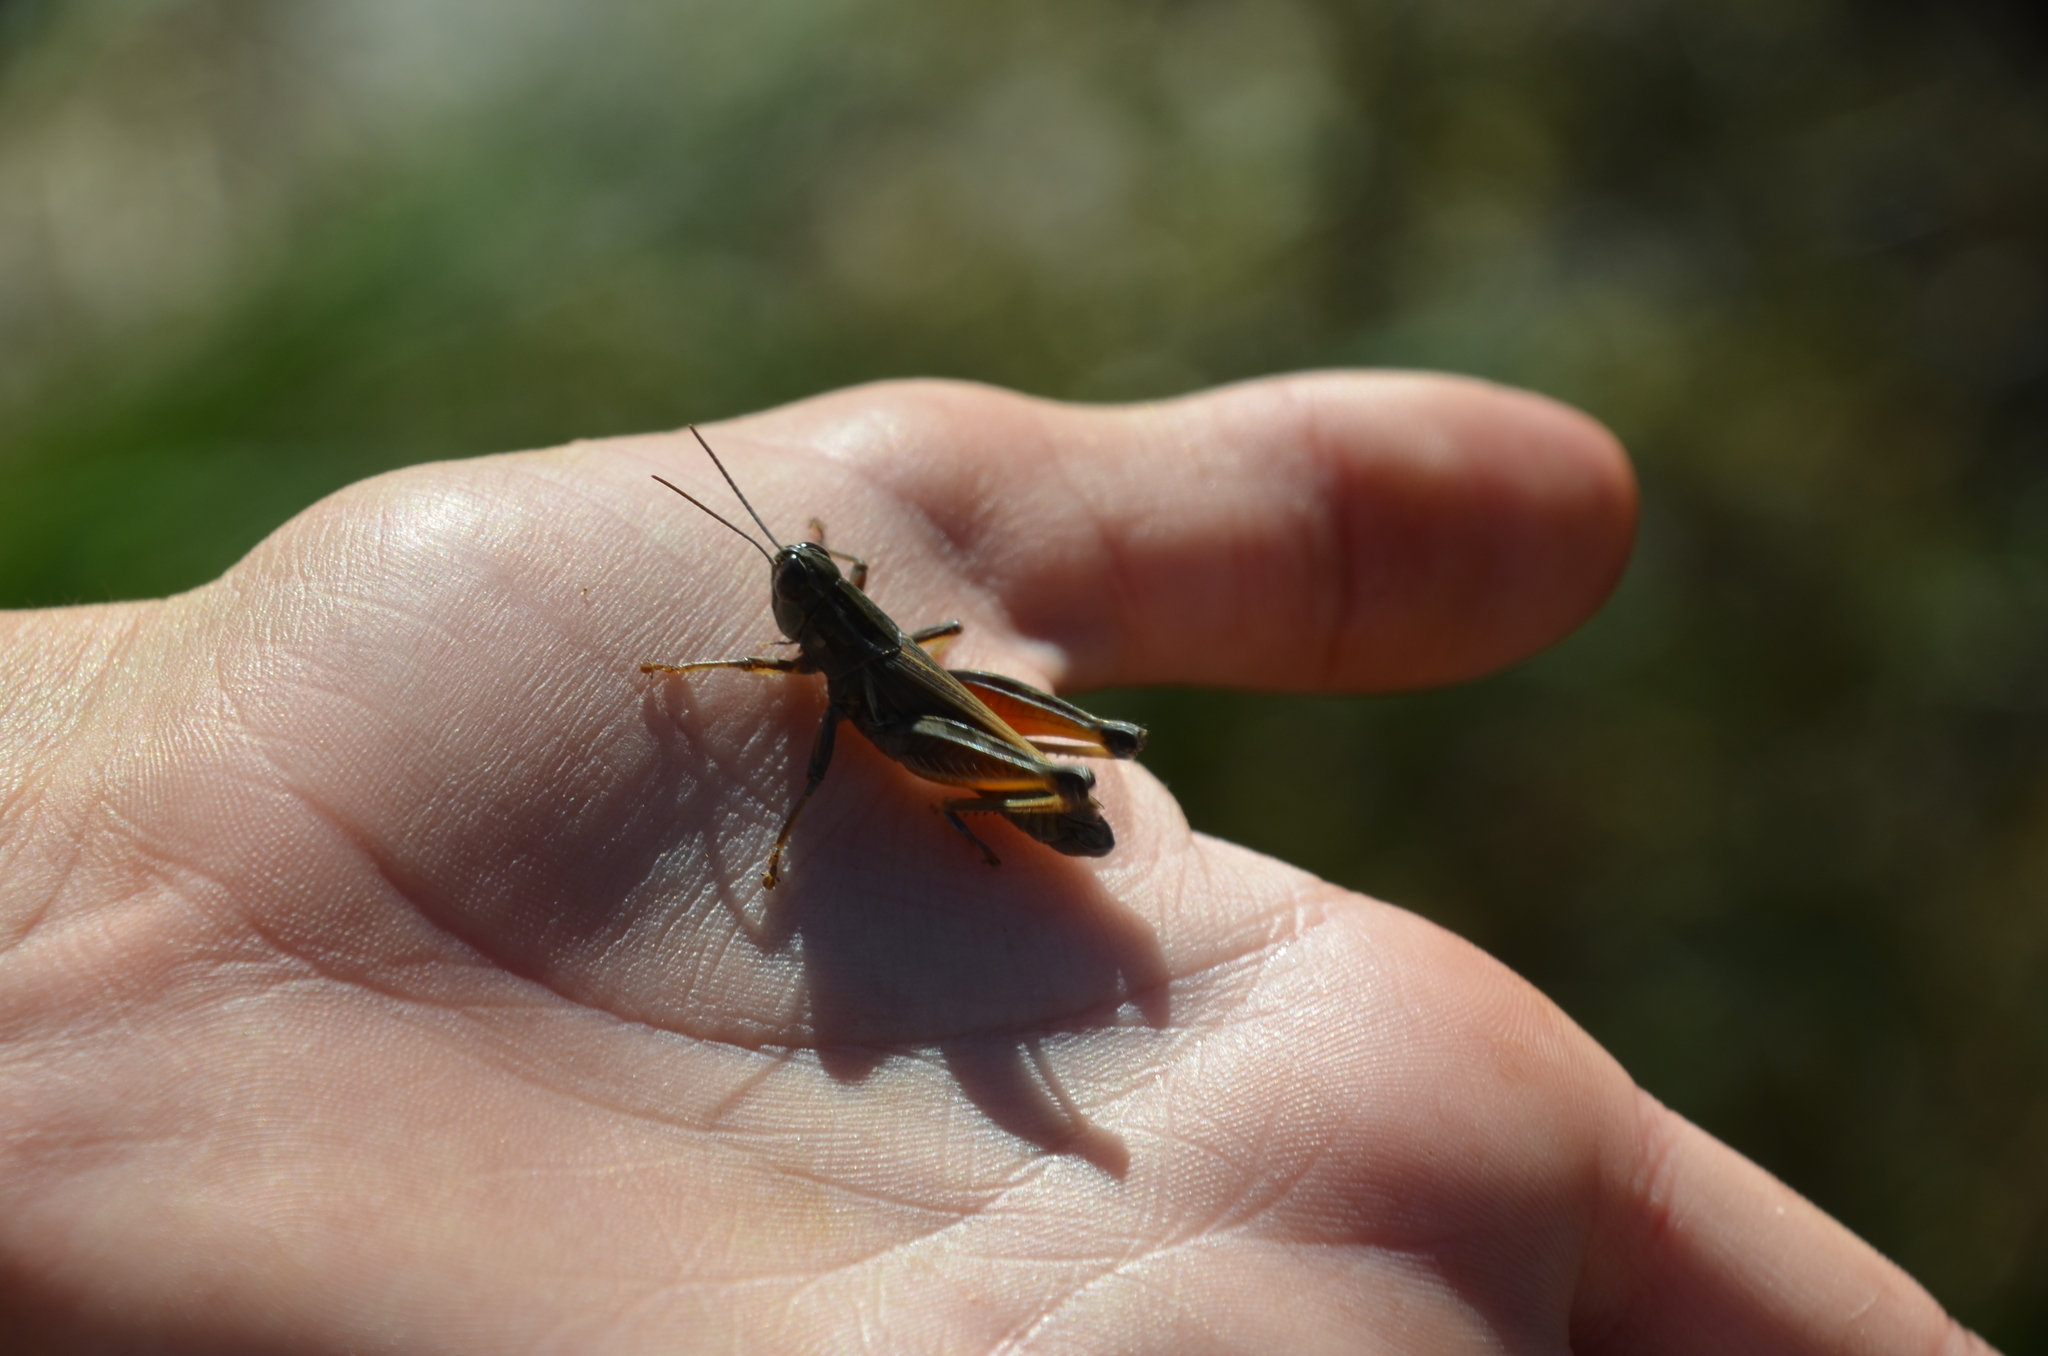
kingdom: Animalia
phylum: Arthropoda
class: Insecta
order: Orthoptera
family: Acrididae
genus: Dichroplus
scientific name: Dichroplus pratensis
